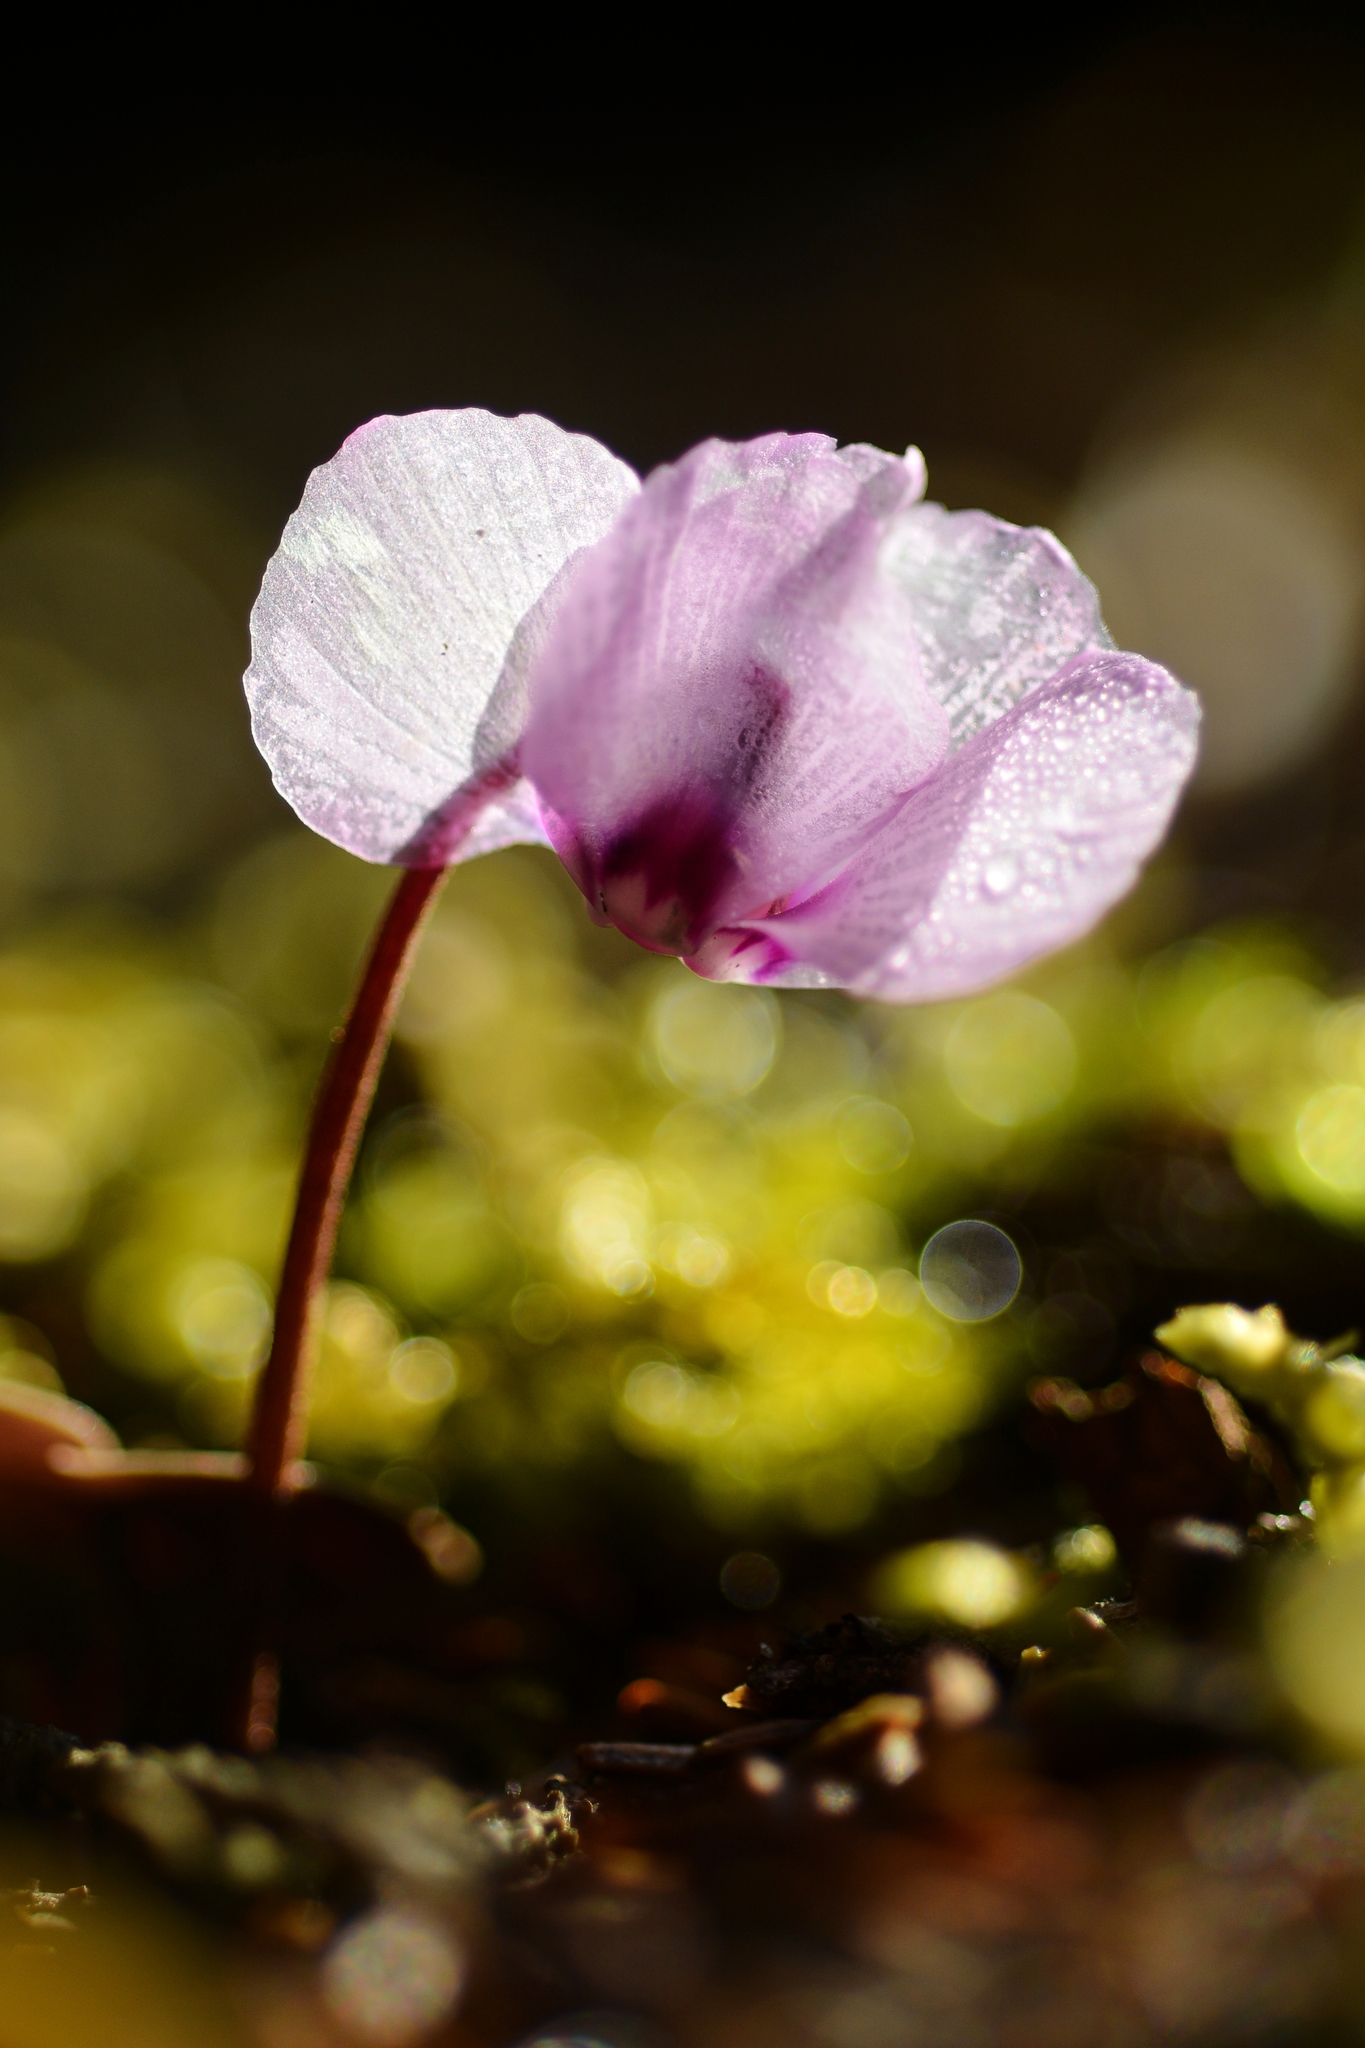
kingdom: Plantae
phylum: Tracheophyta
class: Magnoliopsida
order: Ericales
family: Primulaceae
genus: Cyclamen
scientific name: Cyclamen coum
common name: Eastern sowbread
